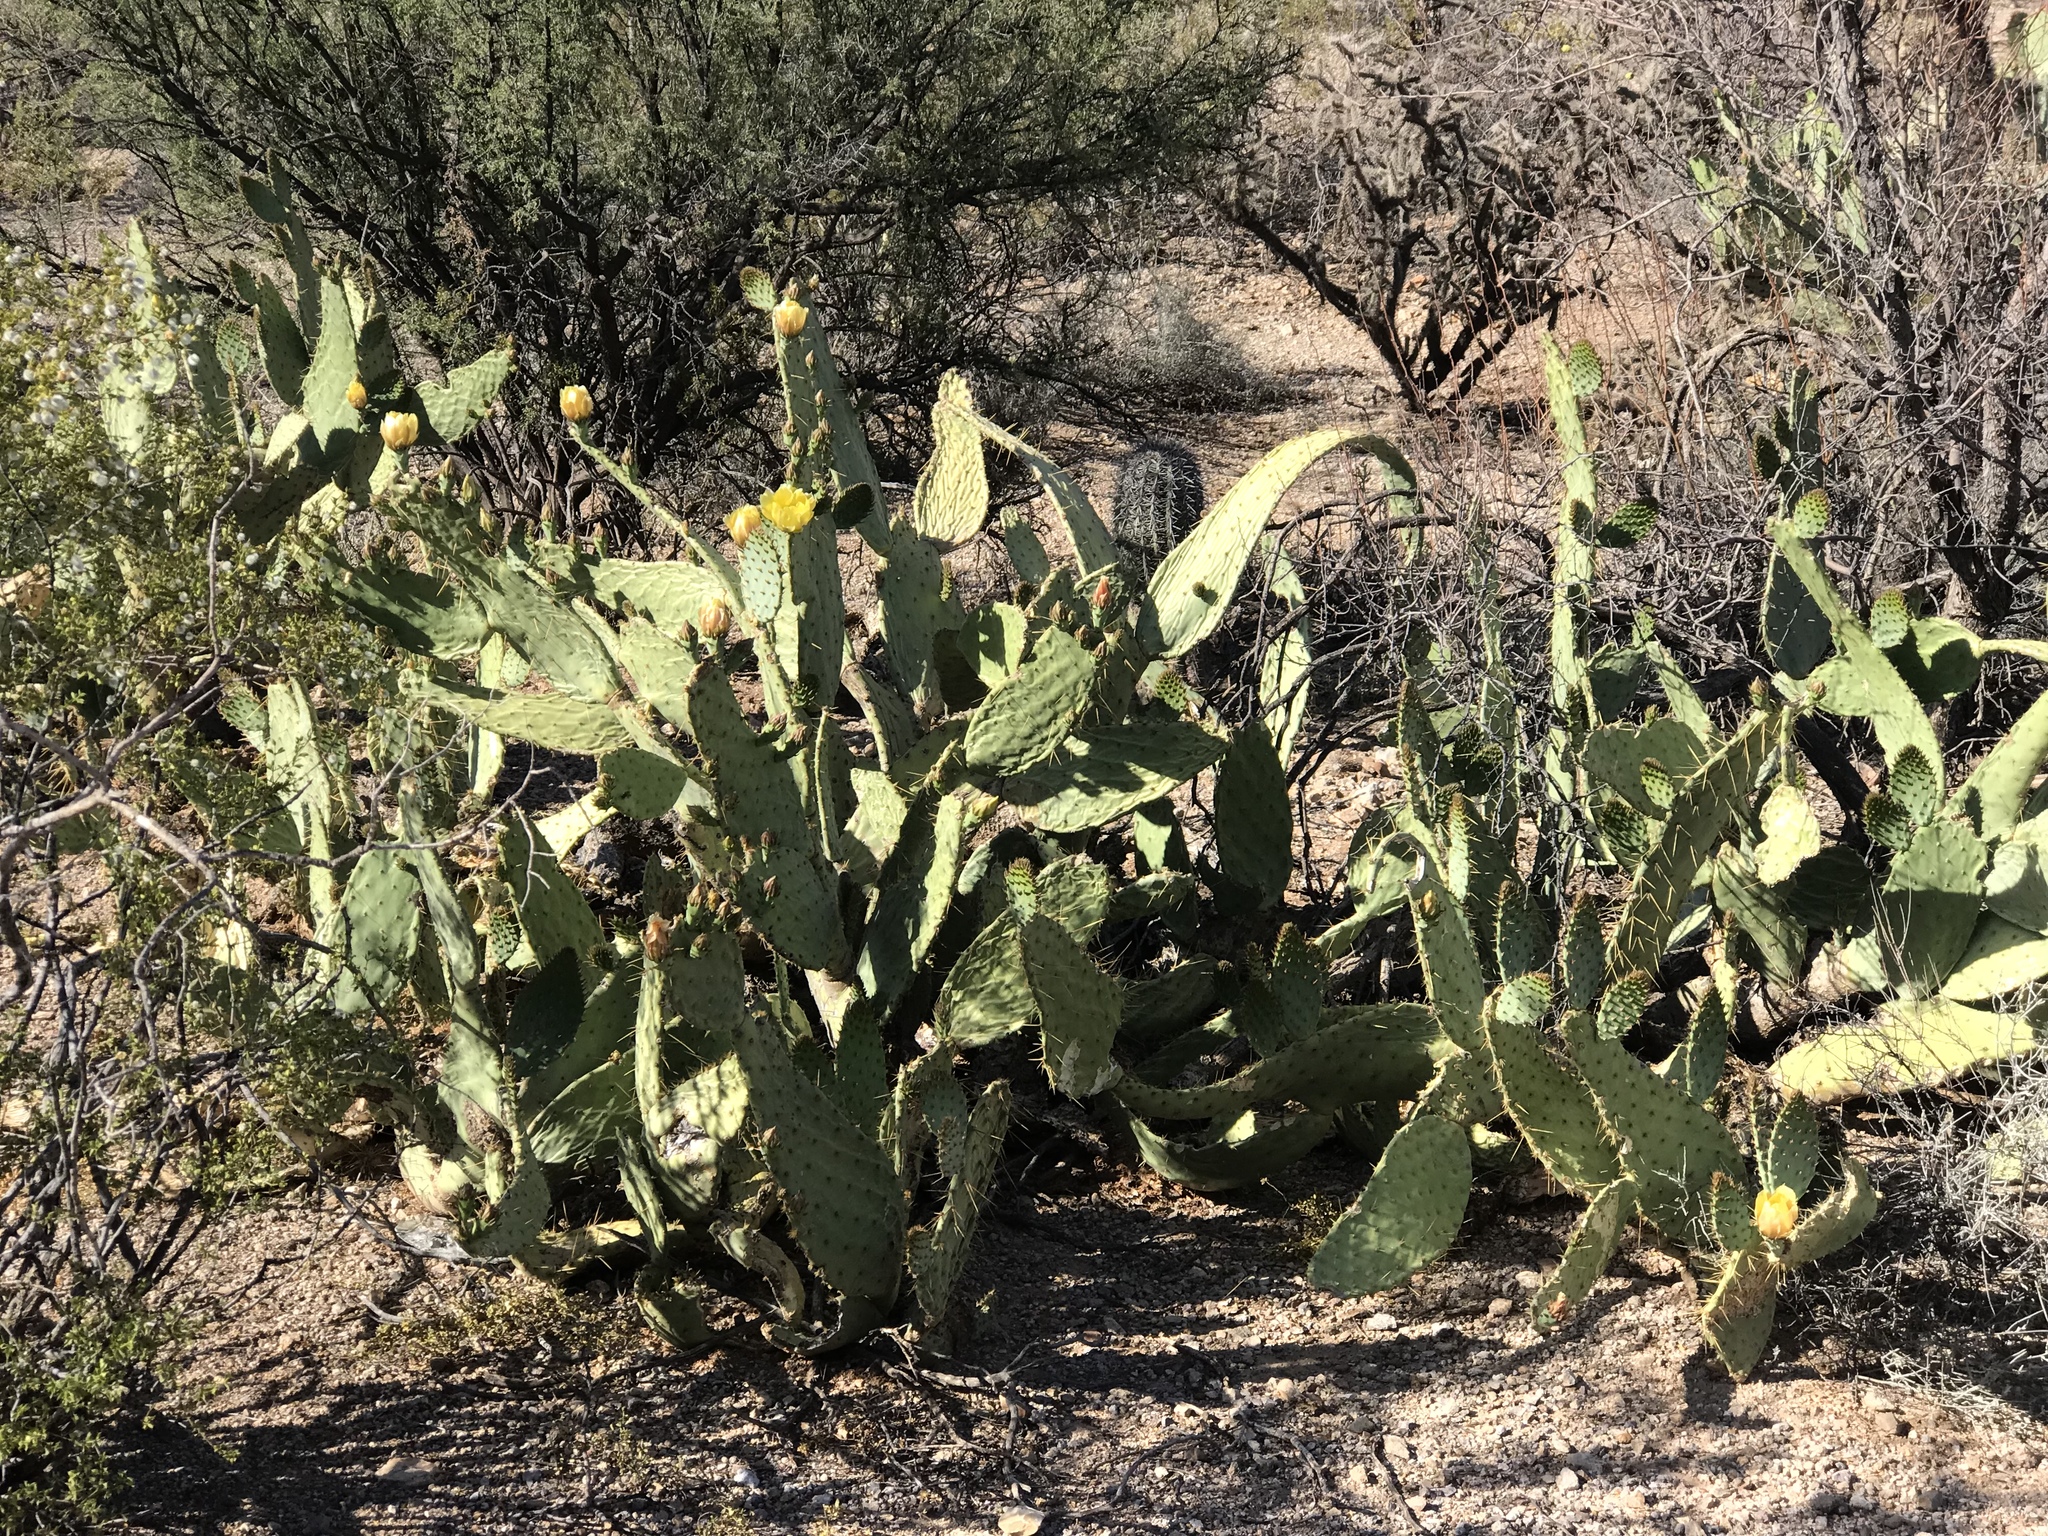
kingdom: Plantae
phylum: Tracheophyta
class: Magnoliopsida
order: Caryophyllales
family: Cactaceae
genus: Opuntia
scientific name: Opuntia engelmannii
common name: Cactus-apple
